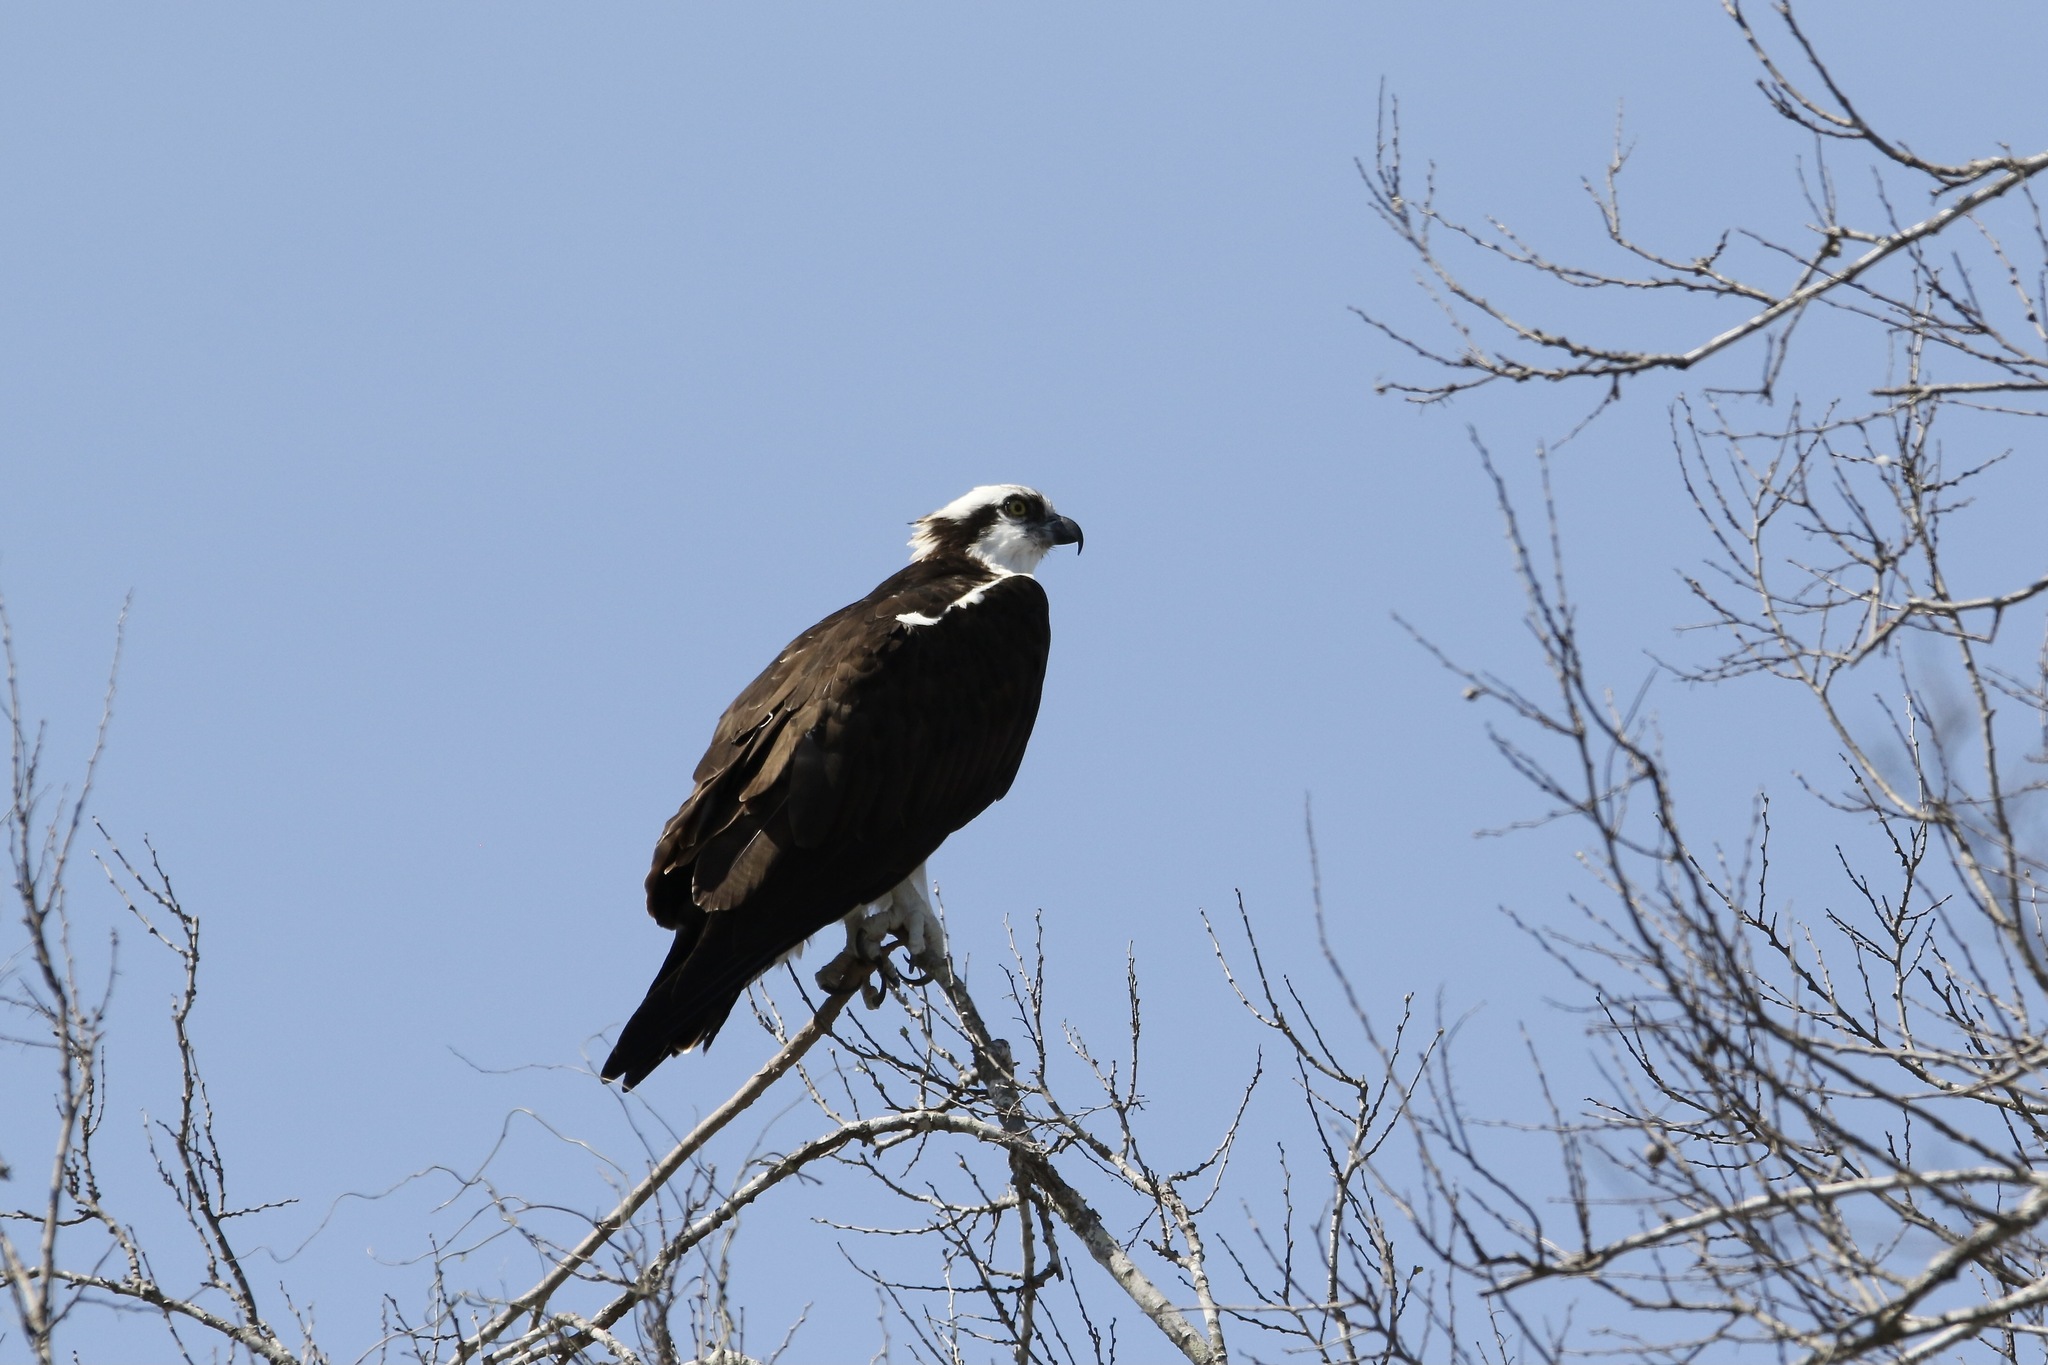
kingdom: Animalia
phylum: Chordata
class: Aves
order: Accipitriformes
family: Pandionidae
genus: Pandion
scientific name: Pandion haliaetus
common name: Osprey
